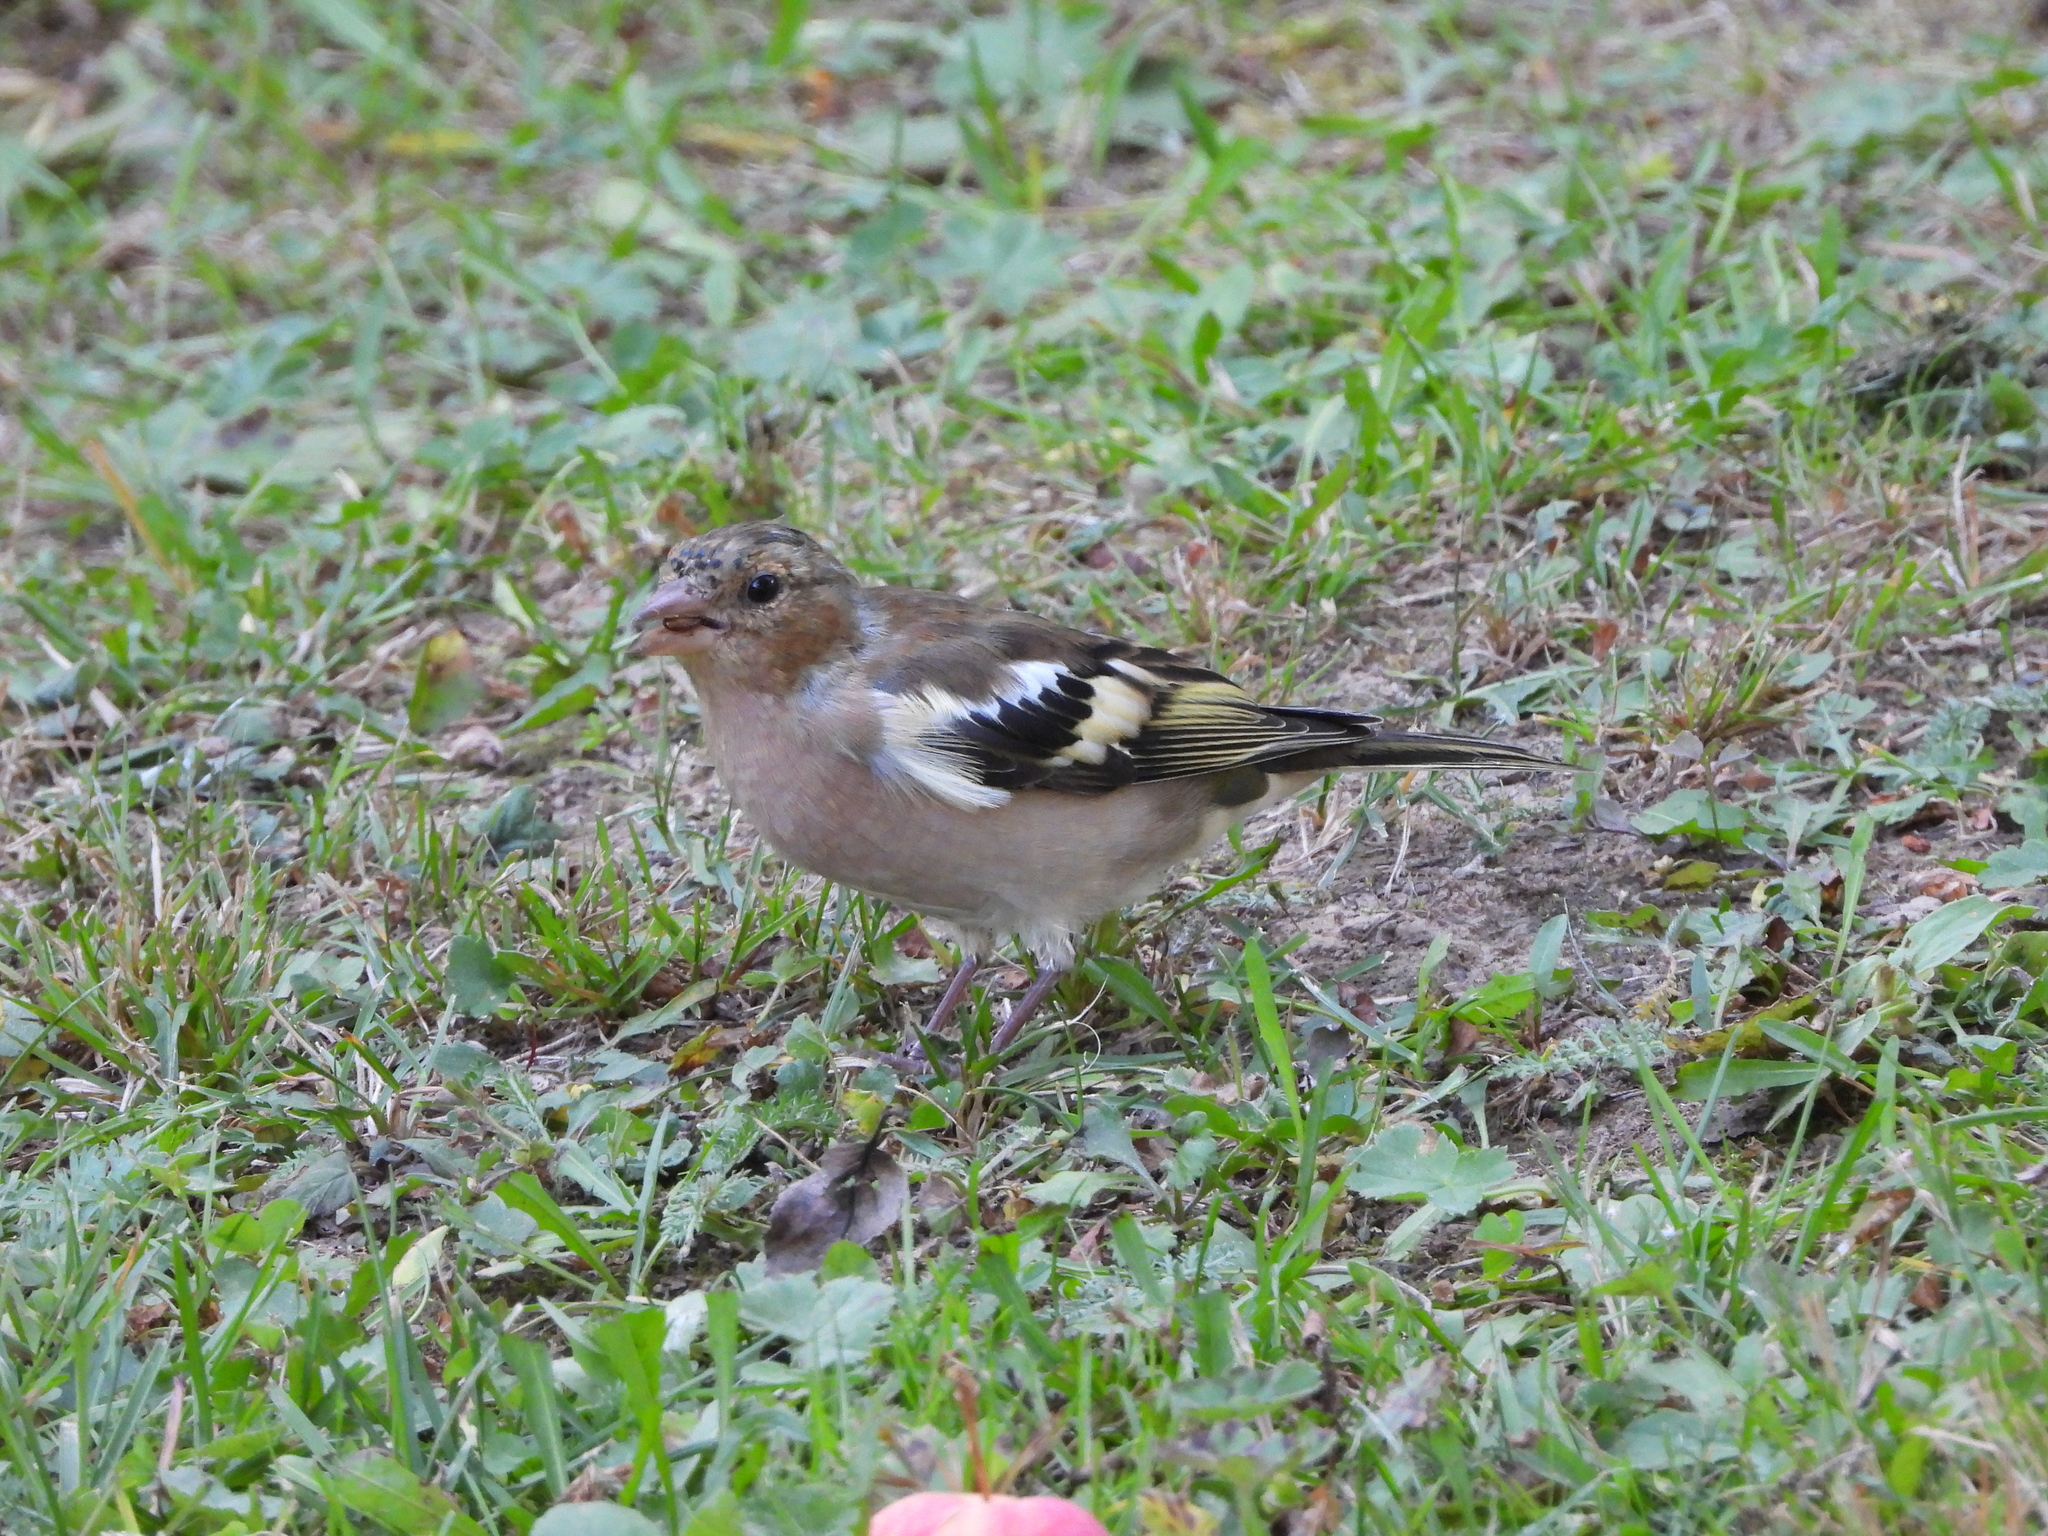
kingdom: Animalia
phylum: Chordata
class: Aves
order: Passeriformes
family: Fringillidae
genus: Fringilla
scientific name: Fringilla coelebs
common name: Common chaffinch
